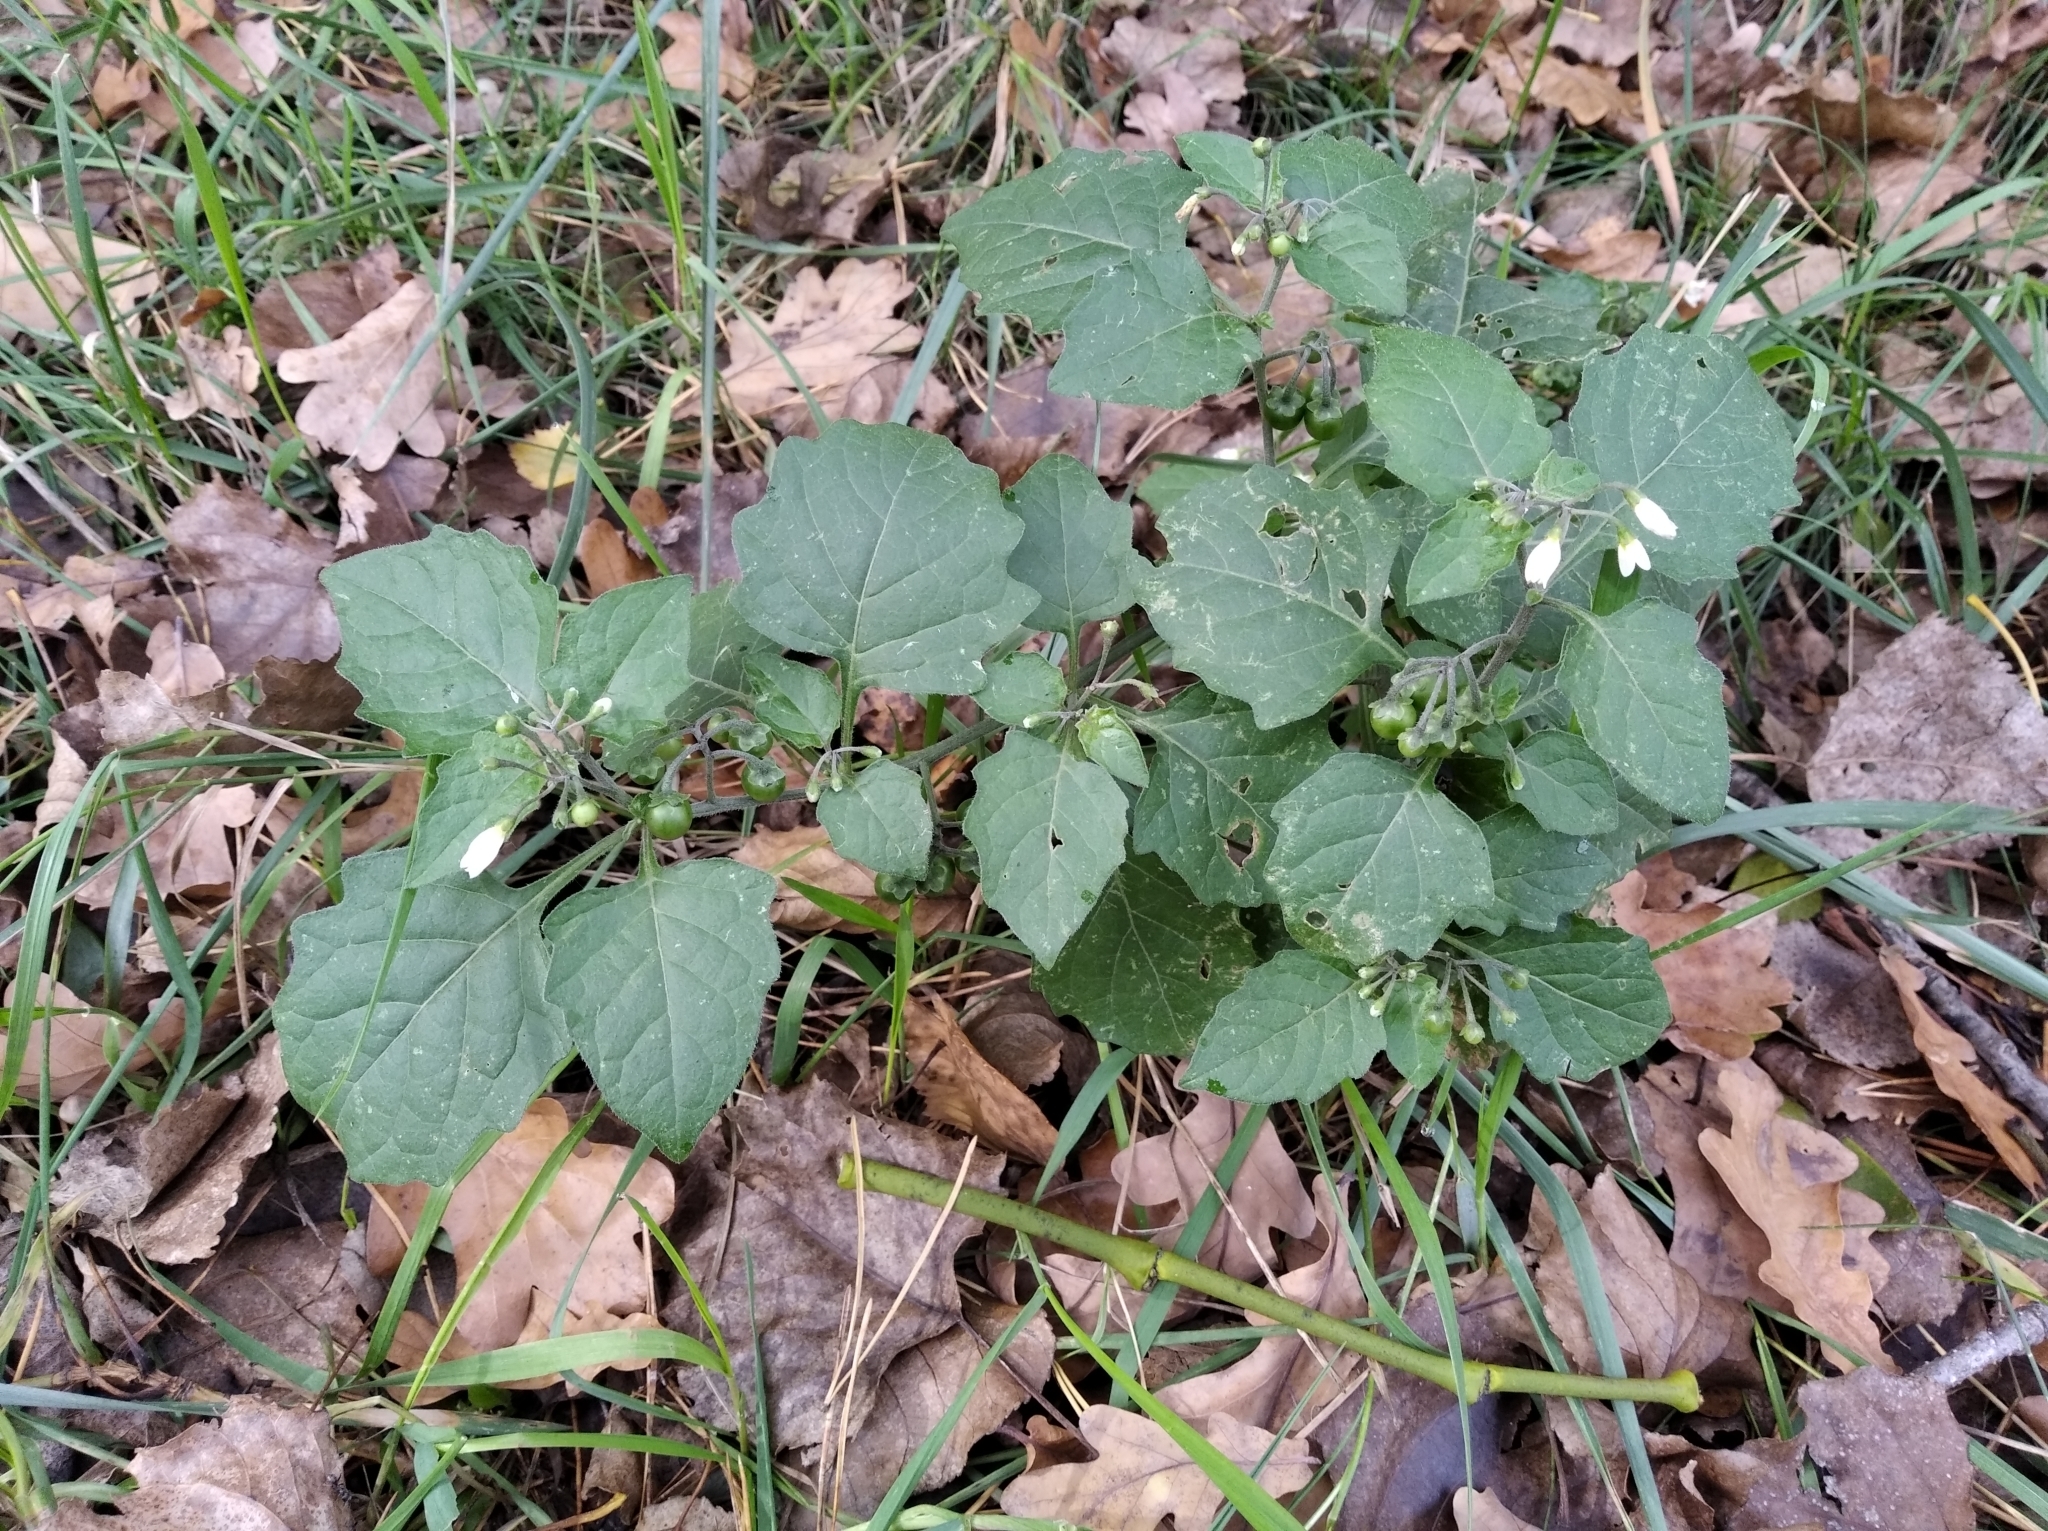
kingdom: Plantae
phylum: Tracheophyta
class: Magnoliopsida
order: Solanales
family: Solanaceae
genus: Solanum
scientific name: Solanum nigrum
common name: Black nightshade
